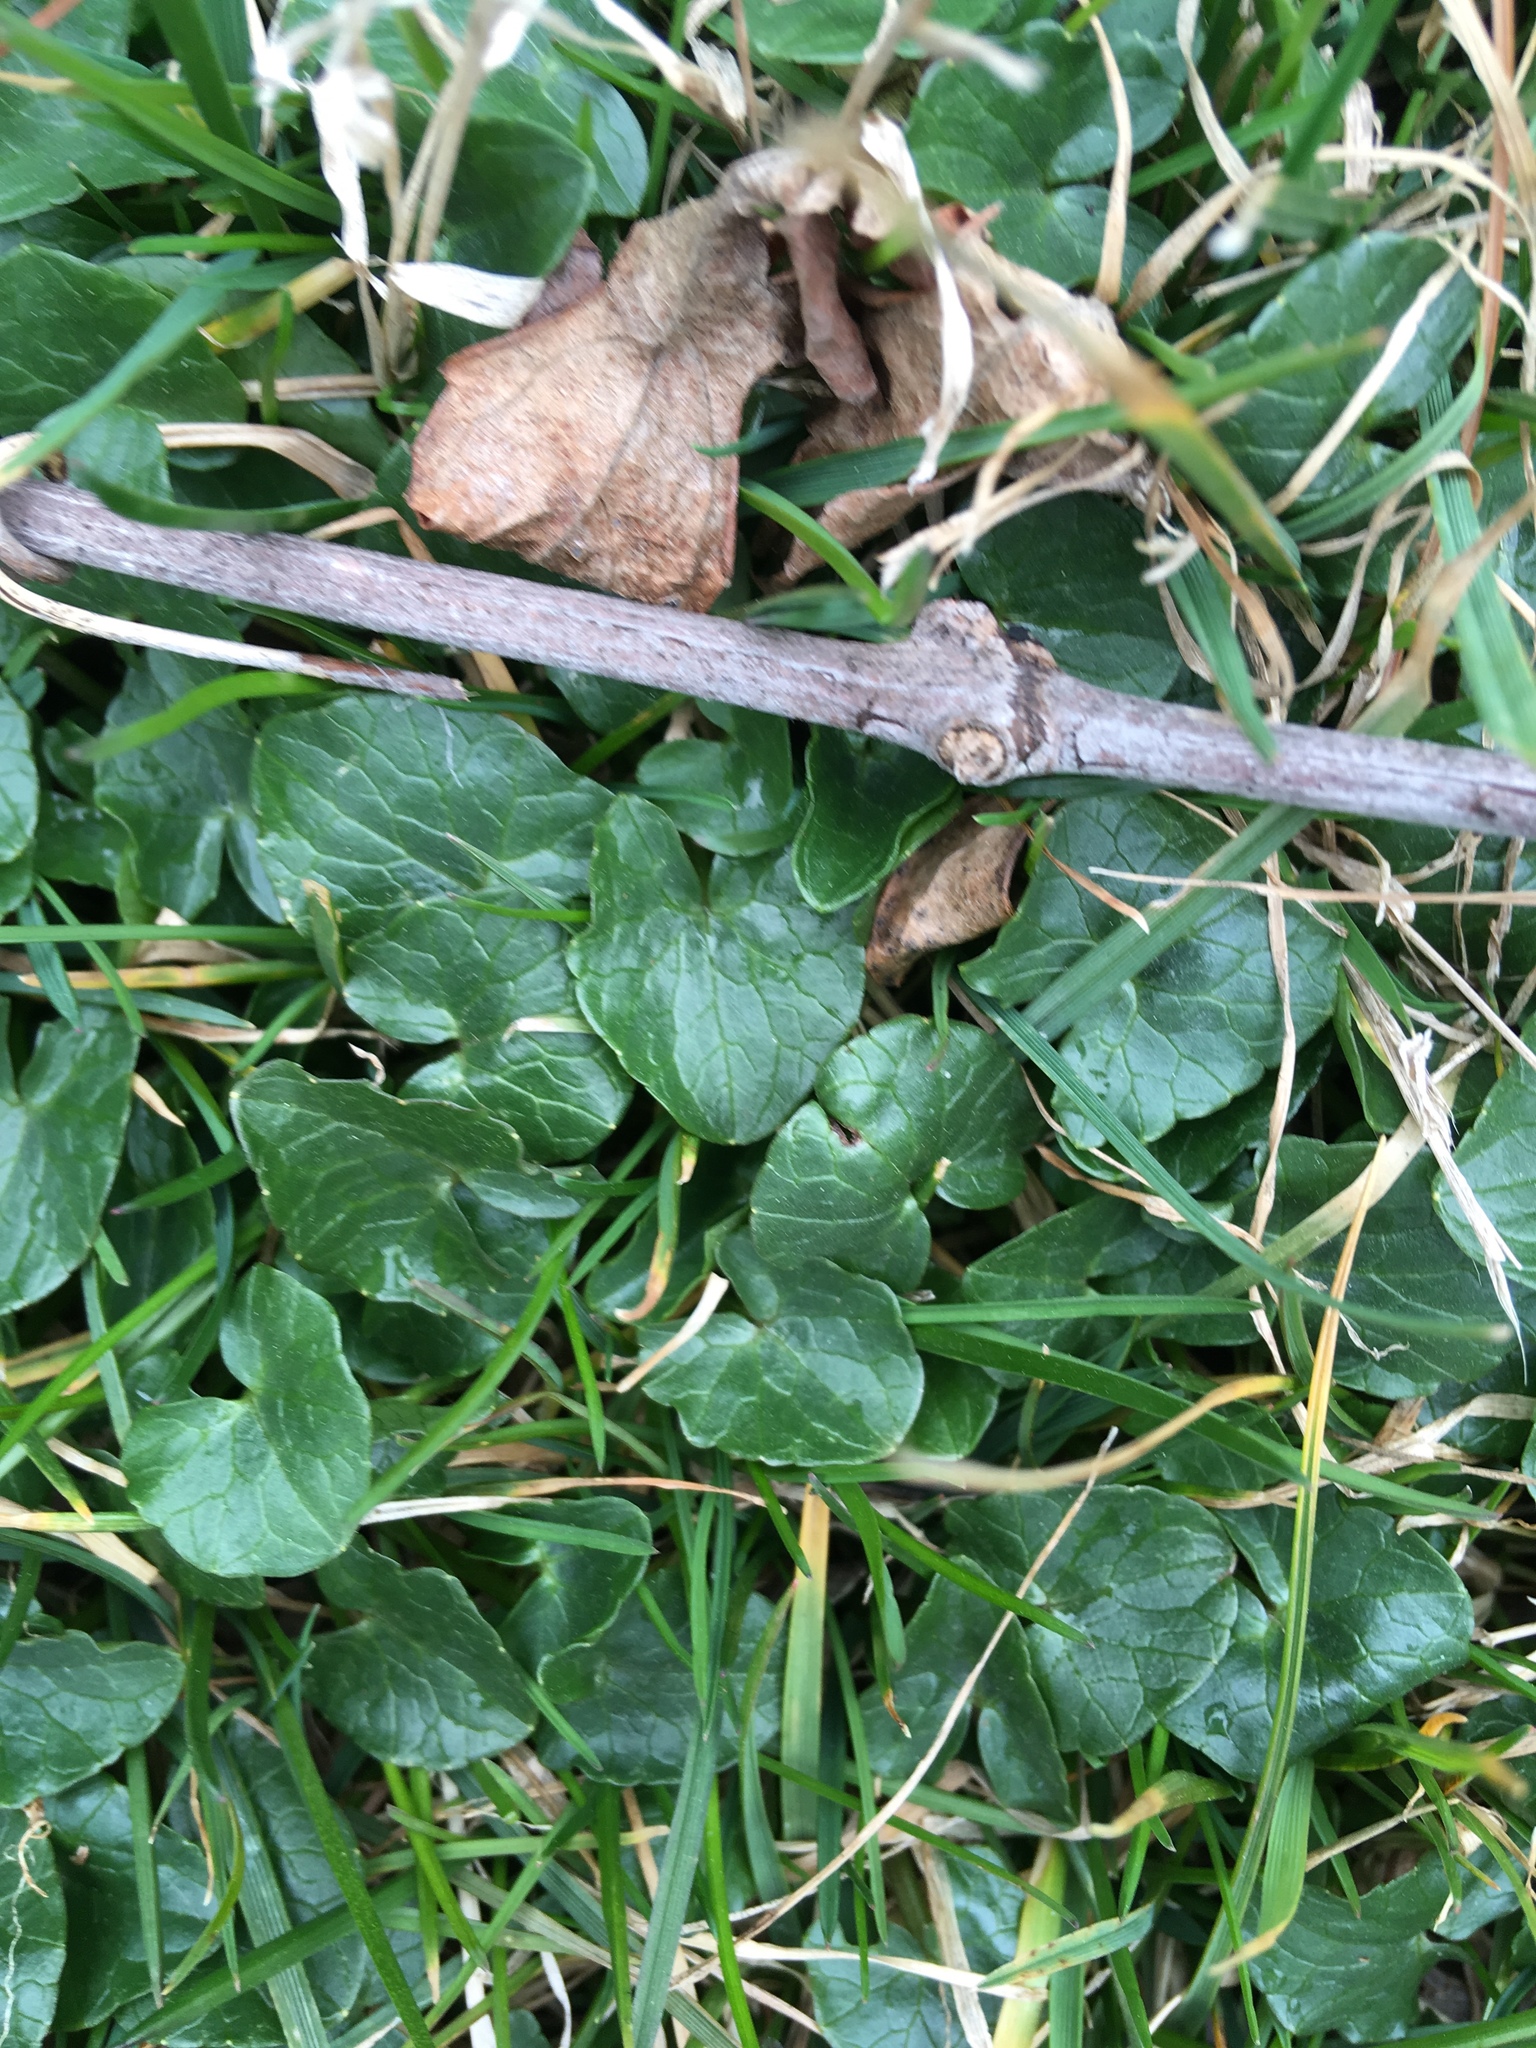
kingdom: Plantae
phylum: Tracheophyta
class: Magnoliopsida
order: Ranunculales
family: Ranunculaceae
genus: Ficaria
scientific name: Ficaria verna
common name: Lesser celandine
